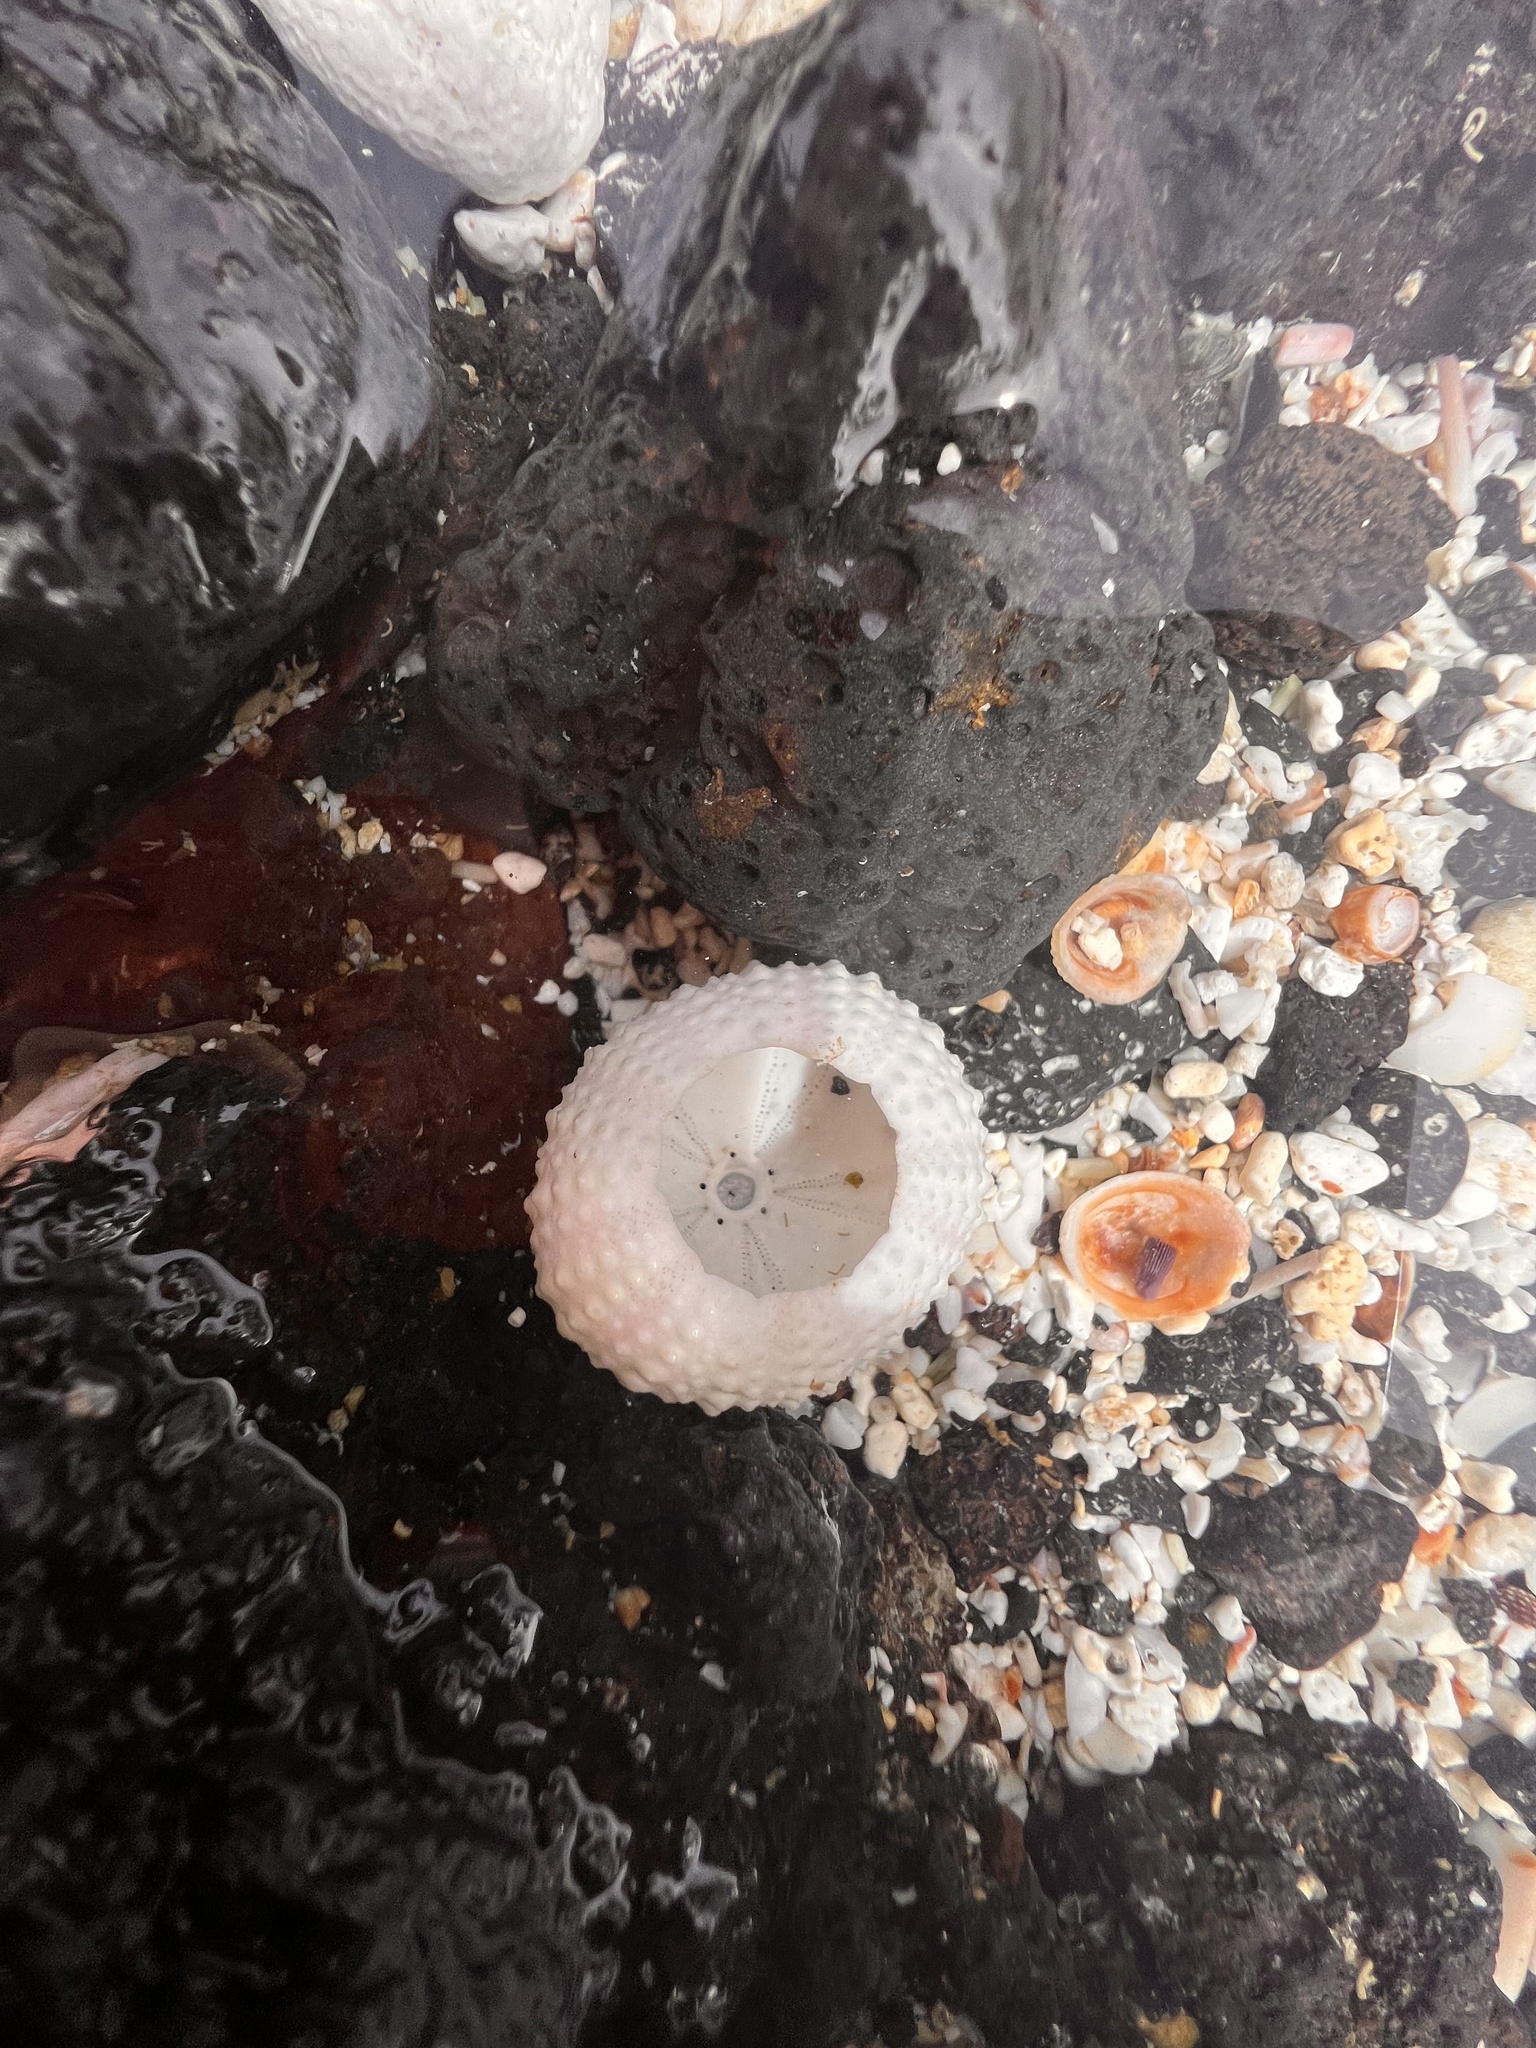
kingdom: Animalia
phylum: Echinodermata
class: Echinoidea
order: Camarodonta
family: Echinometridae
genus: Echinometra
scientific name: Echinometra mathaei
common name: Rock-boring urchin
